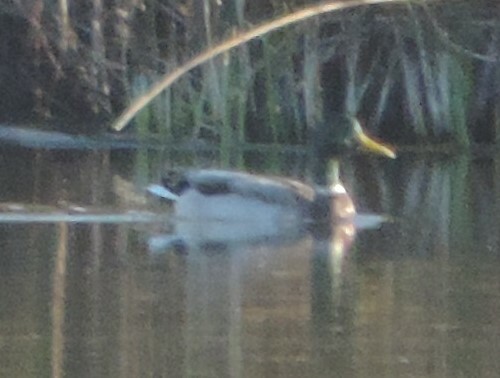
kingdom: Animalia
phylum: Chordata
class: Aves
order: Anseriformes
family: Anatidae
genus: Anas
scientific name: Anas platyrhynchos
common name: Mallard
